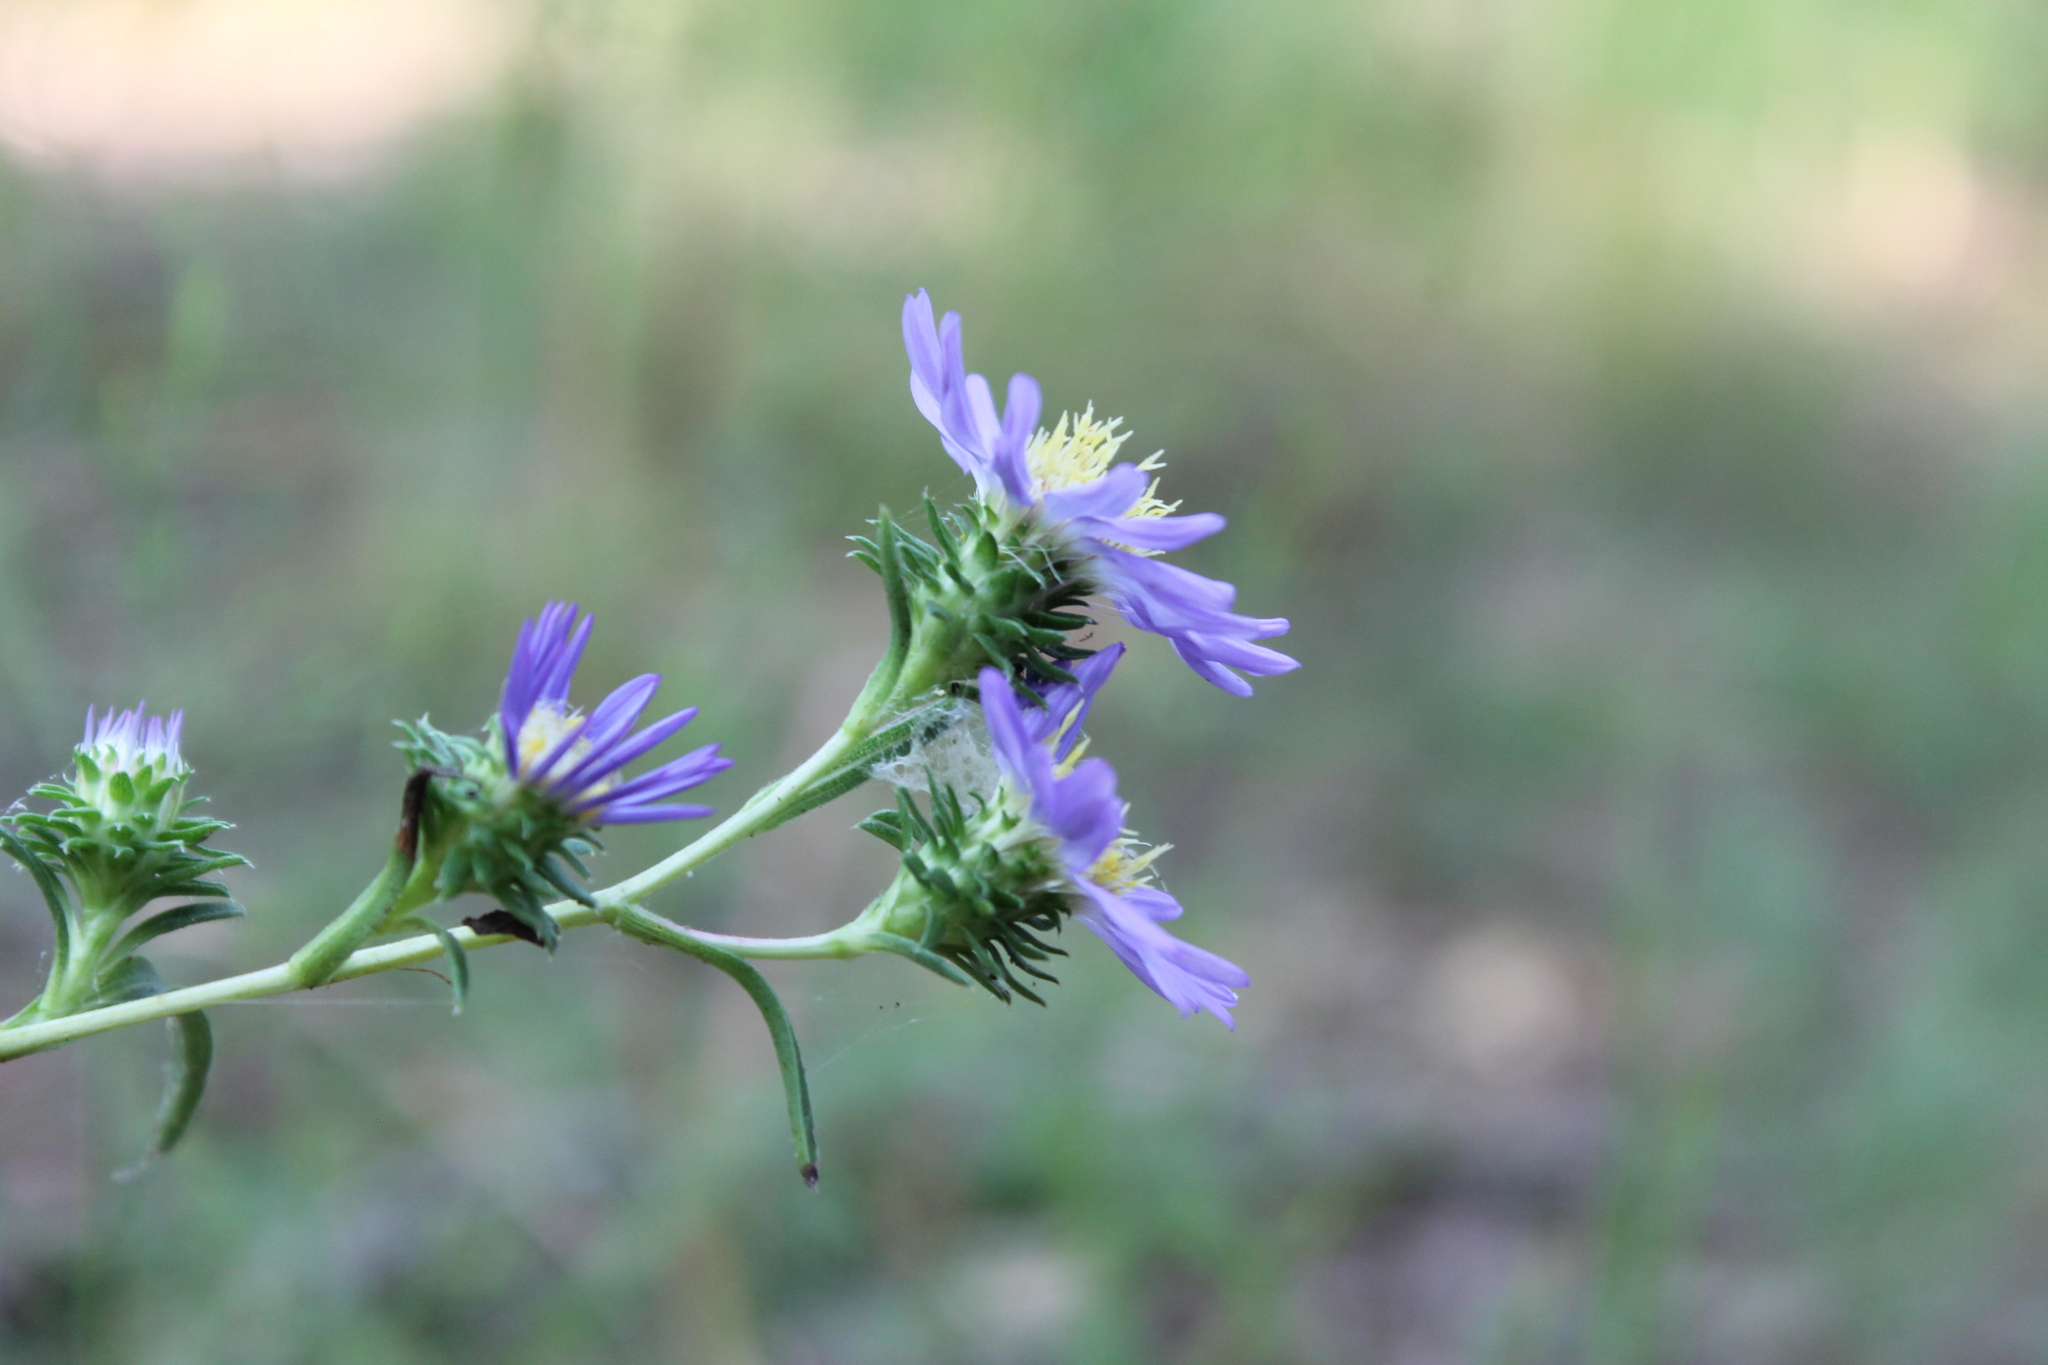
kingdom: Plantae
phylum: Tracheophyta
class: Magnoliopsida
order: Asterales
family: Asteraceae
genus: Eurybia
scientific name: Eurybia hemispherica
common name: Showy aster
